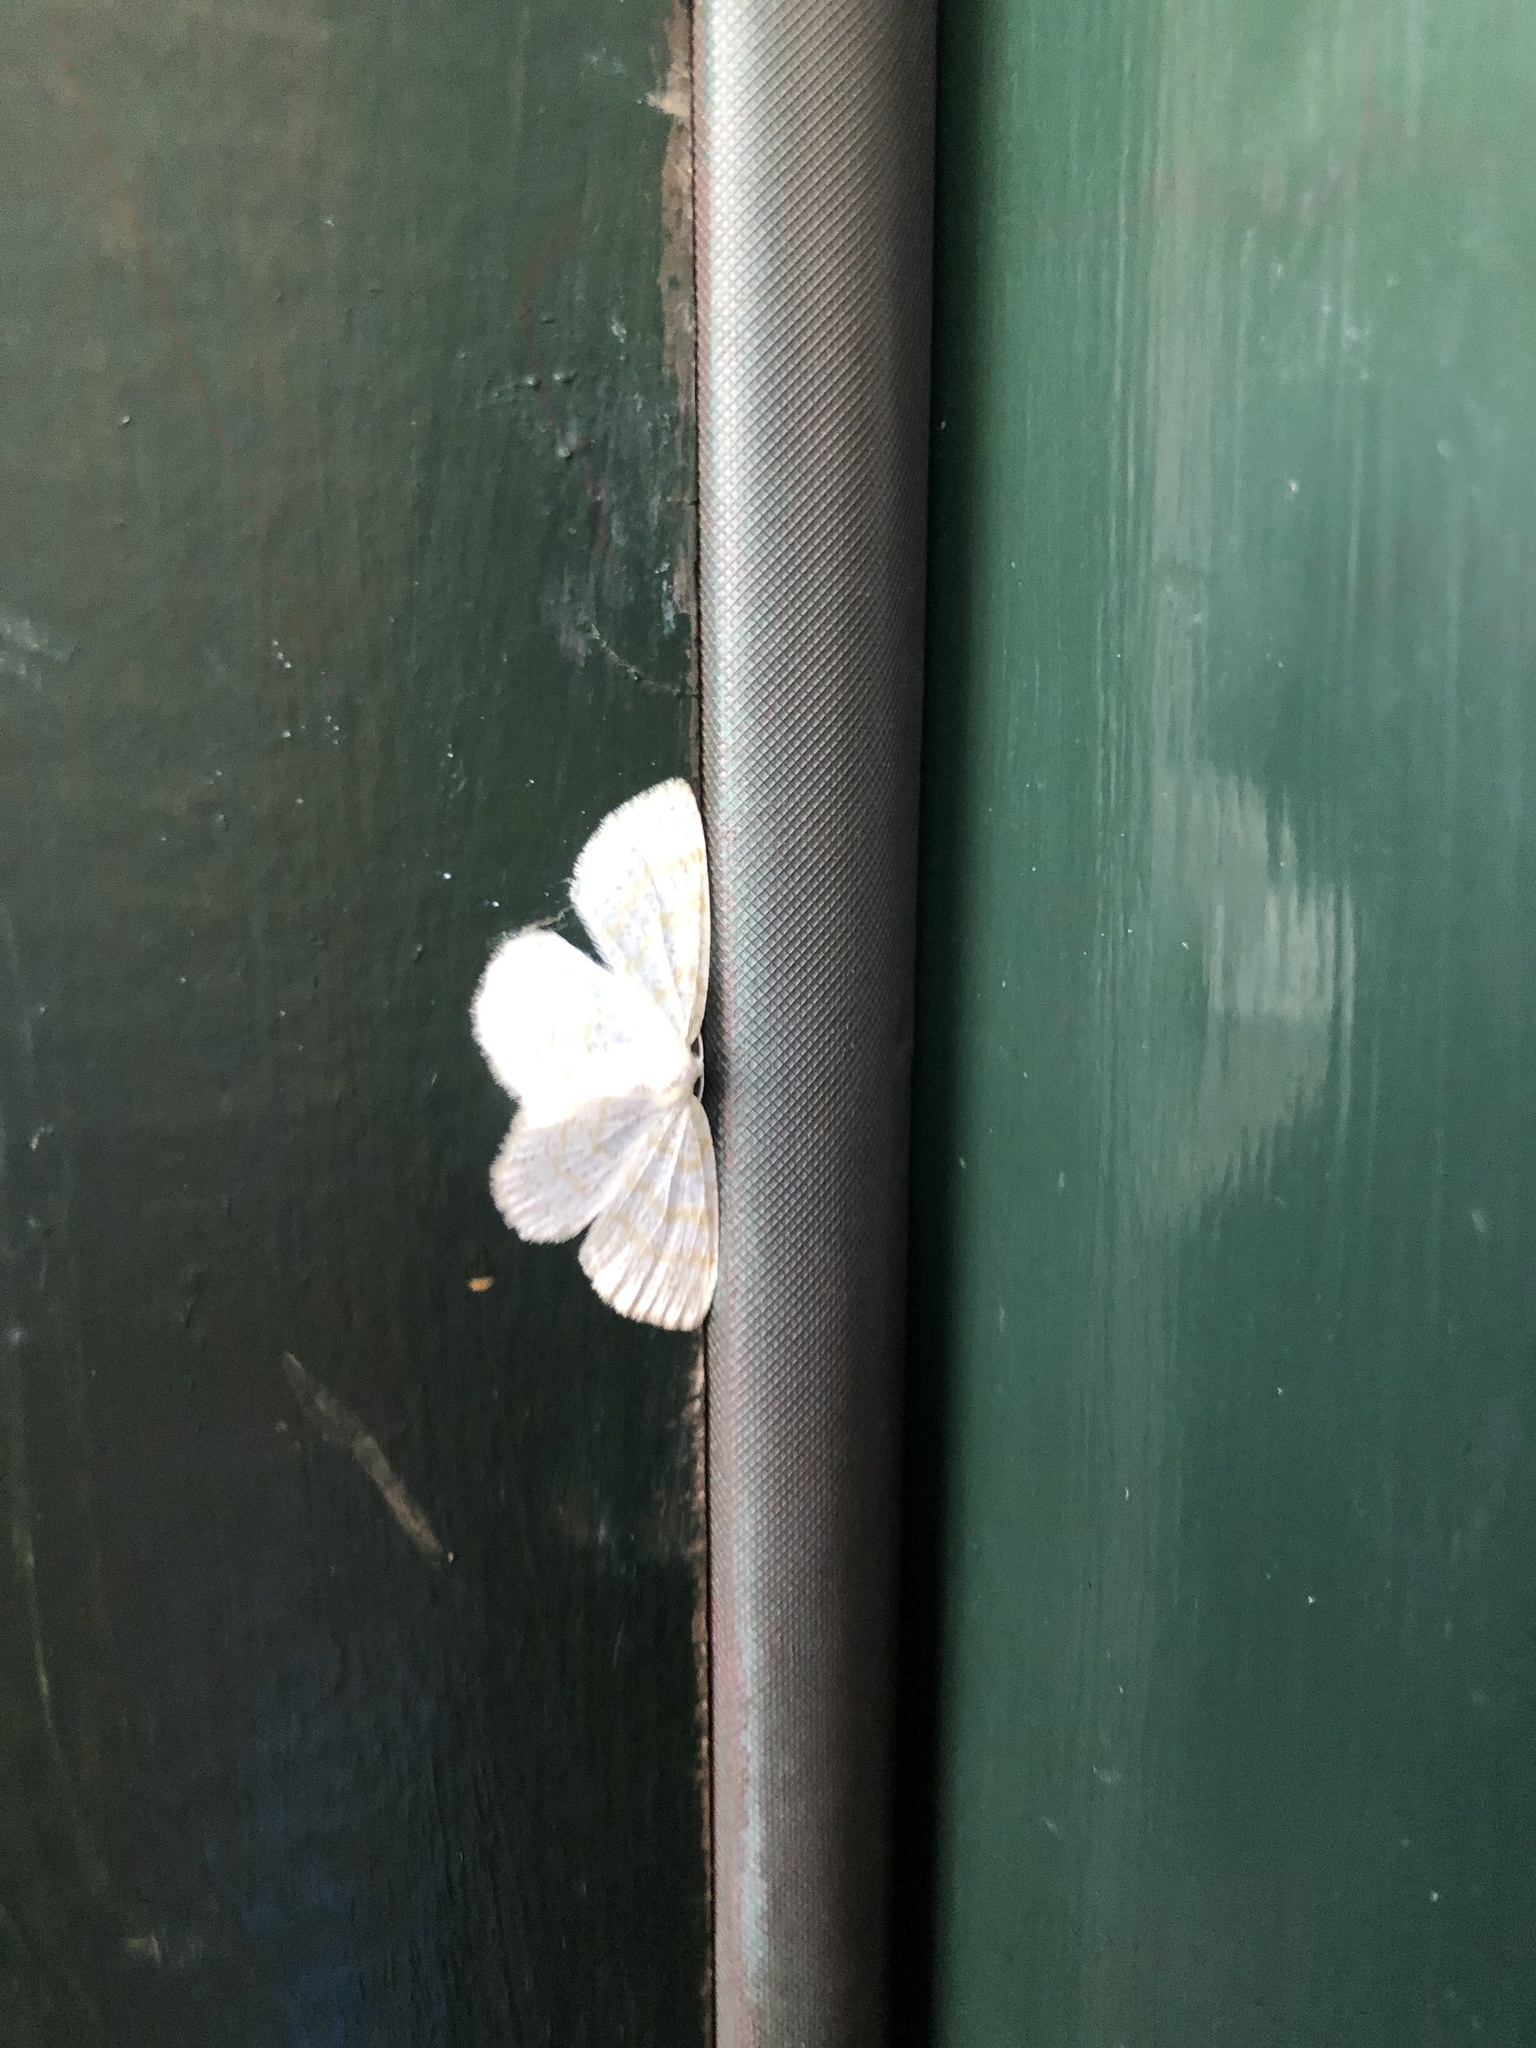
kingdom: Animalia
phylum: Arthropoda
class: Insecta
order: Lepidoptera
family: Geometridae
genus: Cabera
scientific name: Cabera erythemaria
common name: Yellow-dusted cream moth
